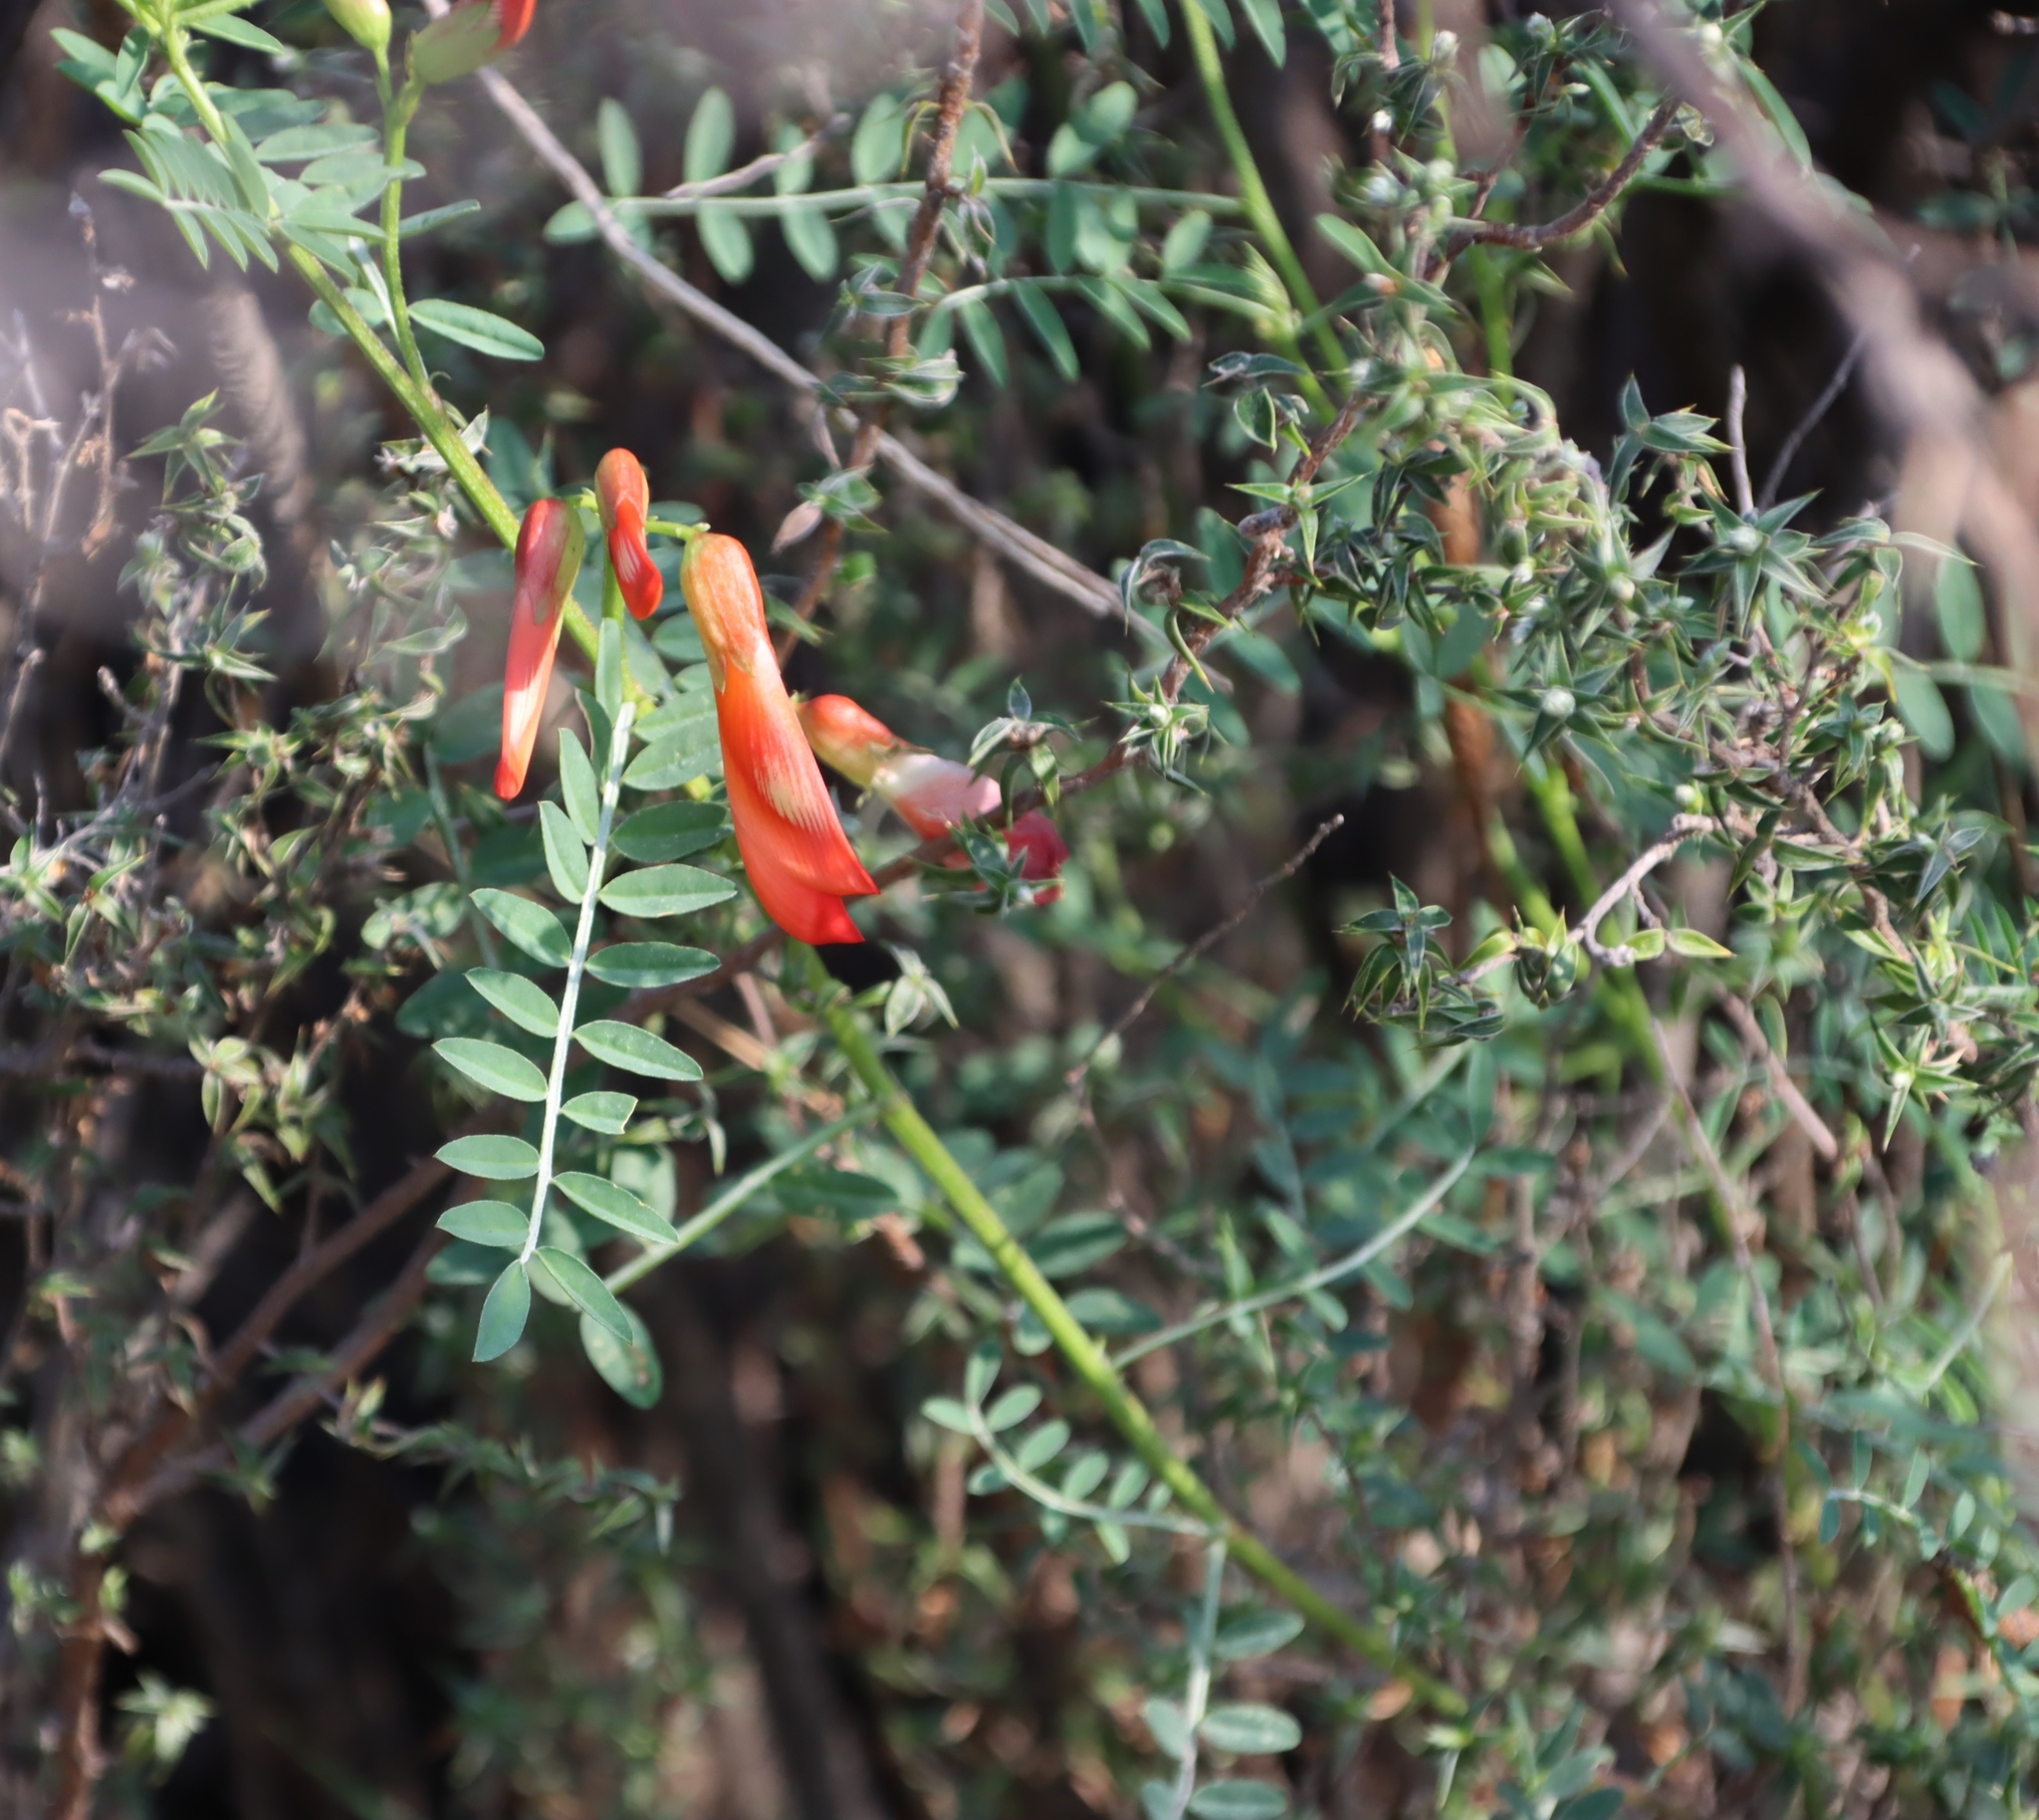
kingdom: Plantae
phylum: Tracheophyta
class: Magnoliopsida
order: Fabales
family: Fabaceae
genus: Lessertia
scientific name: Lessertia frutescens
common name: Balloon-pea
